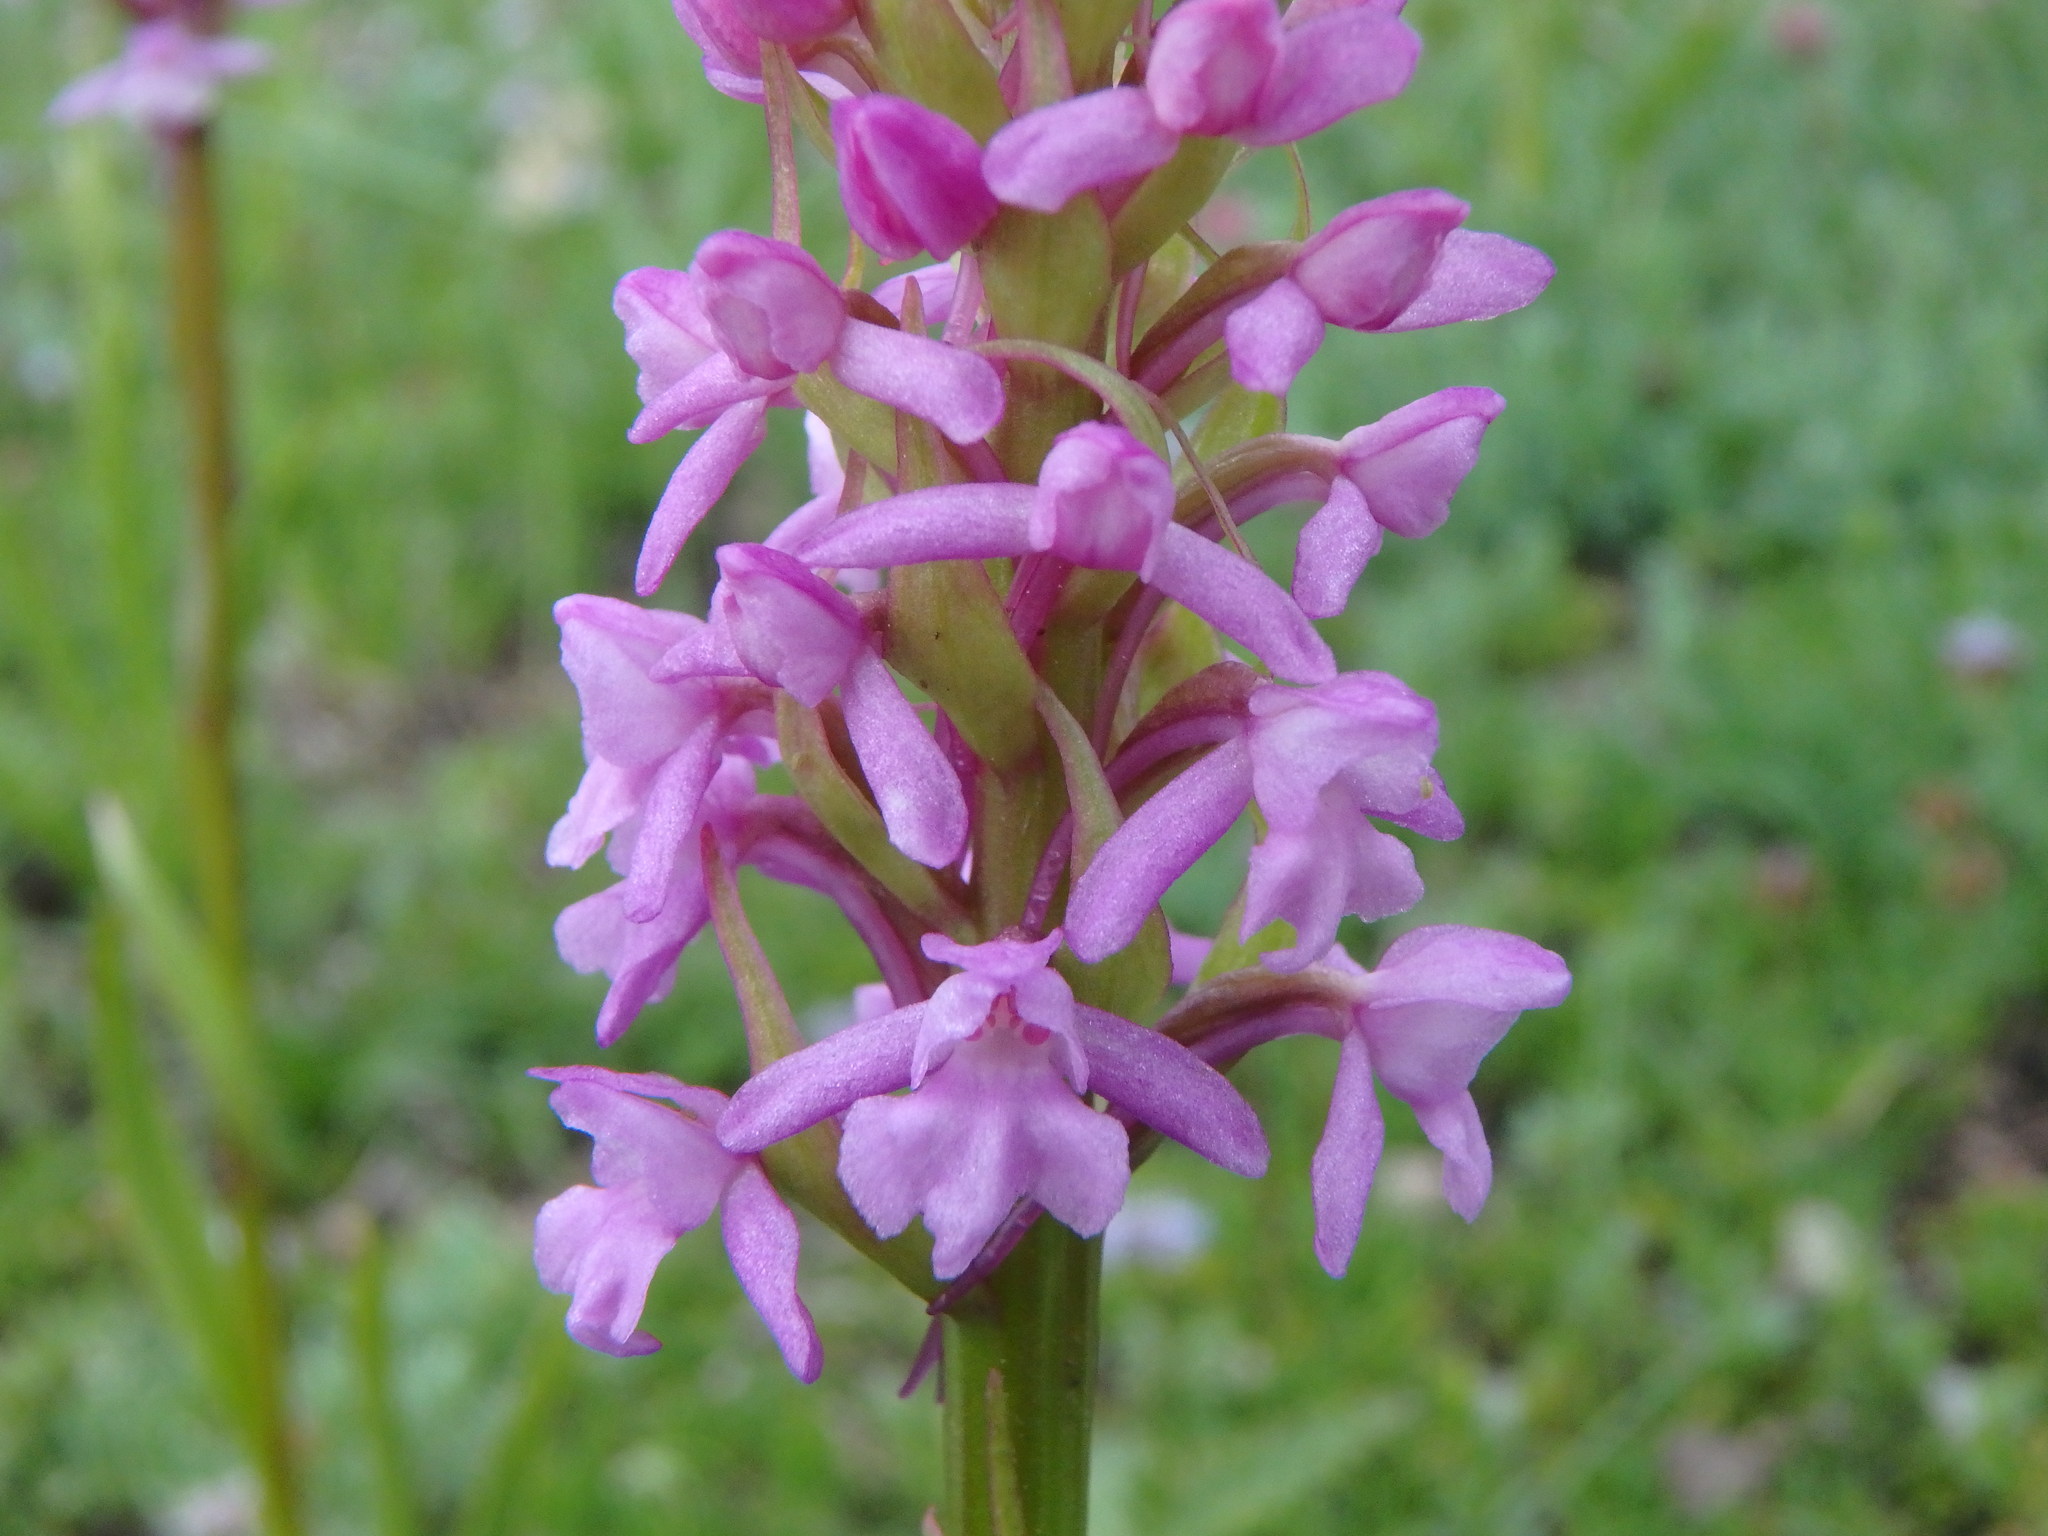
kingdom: Plantae
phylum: Tracheophyta
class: Liliopsida
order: Asparagales
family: Orchidaceae
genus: Gymnadenia
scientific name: Gymnadenia conopsea
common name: Fragrant orchid
